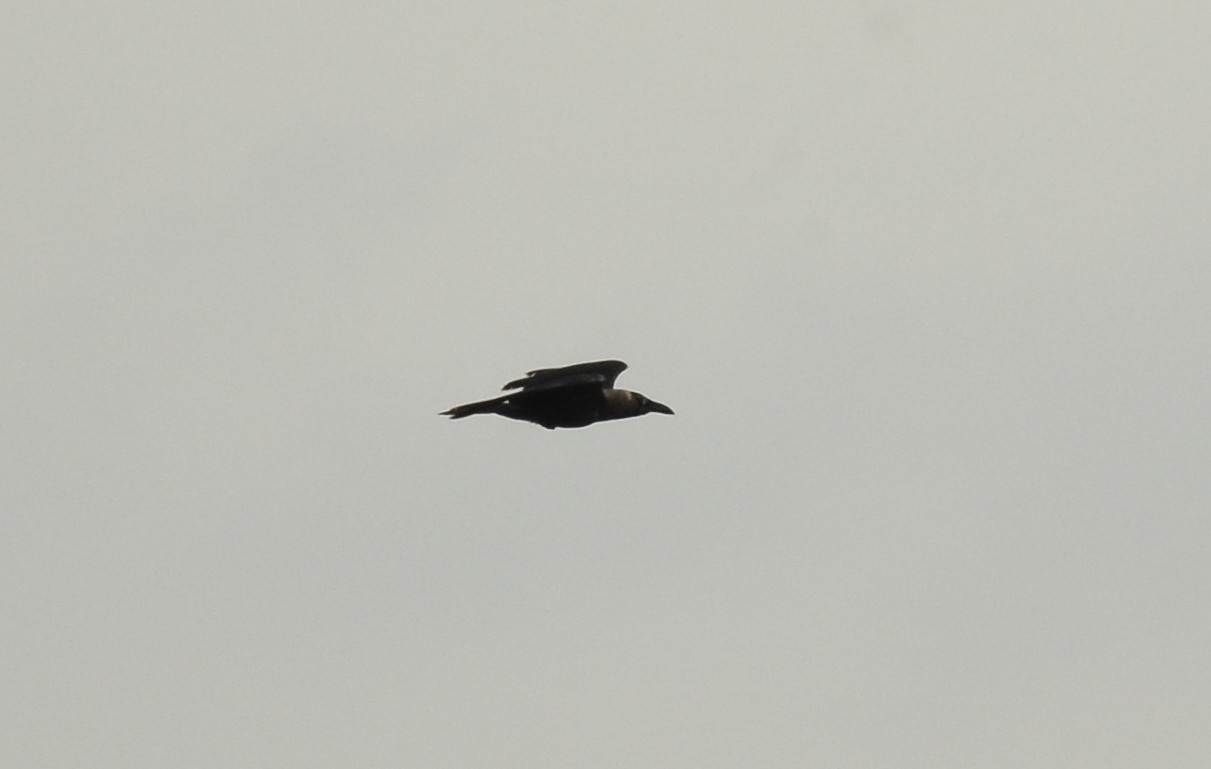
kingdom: Animalia
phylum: Chordata
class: Aves
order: Passeriformes
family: Corvidae
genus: Corvus
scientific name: Corvus splendens
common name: House crow
